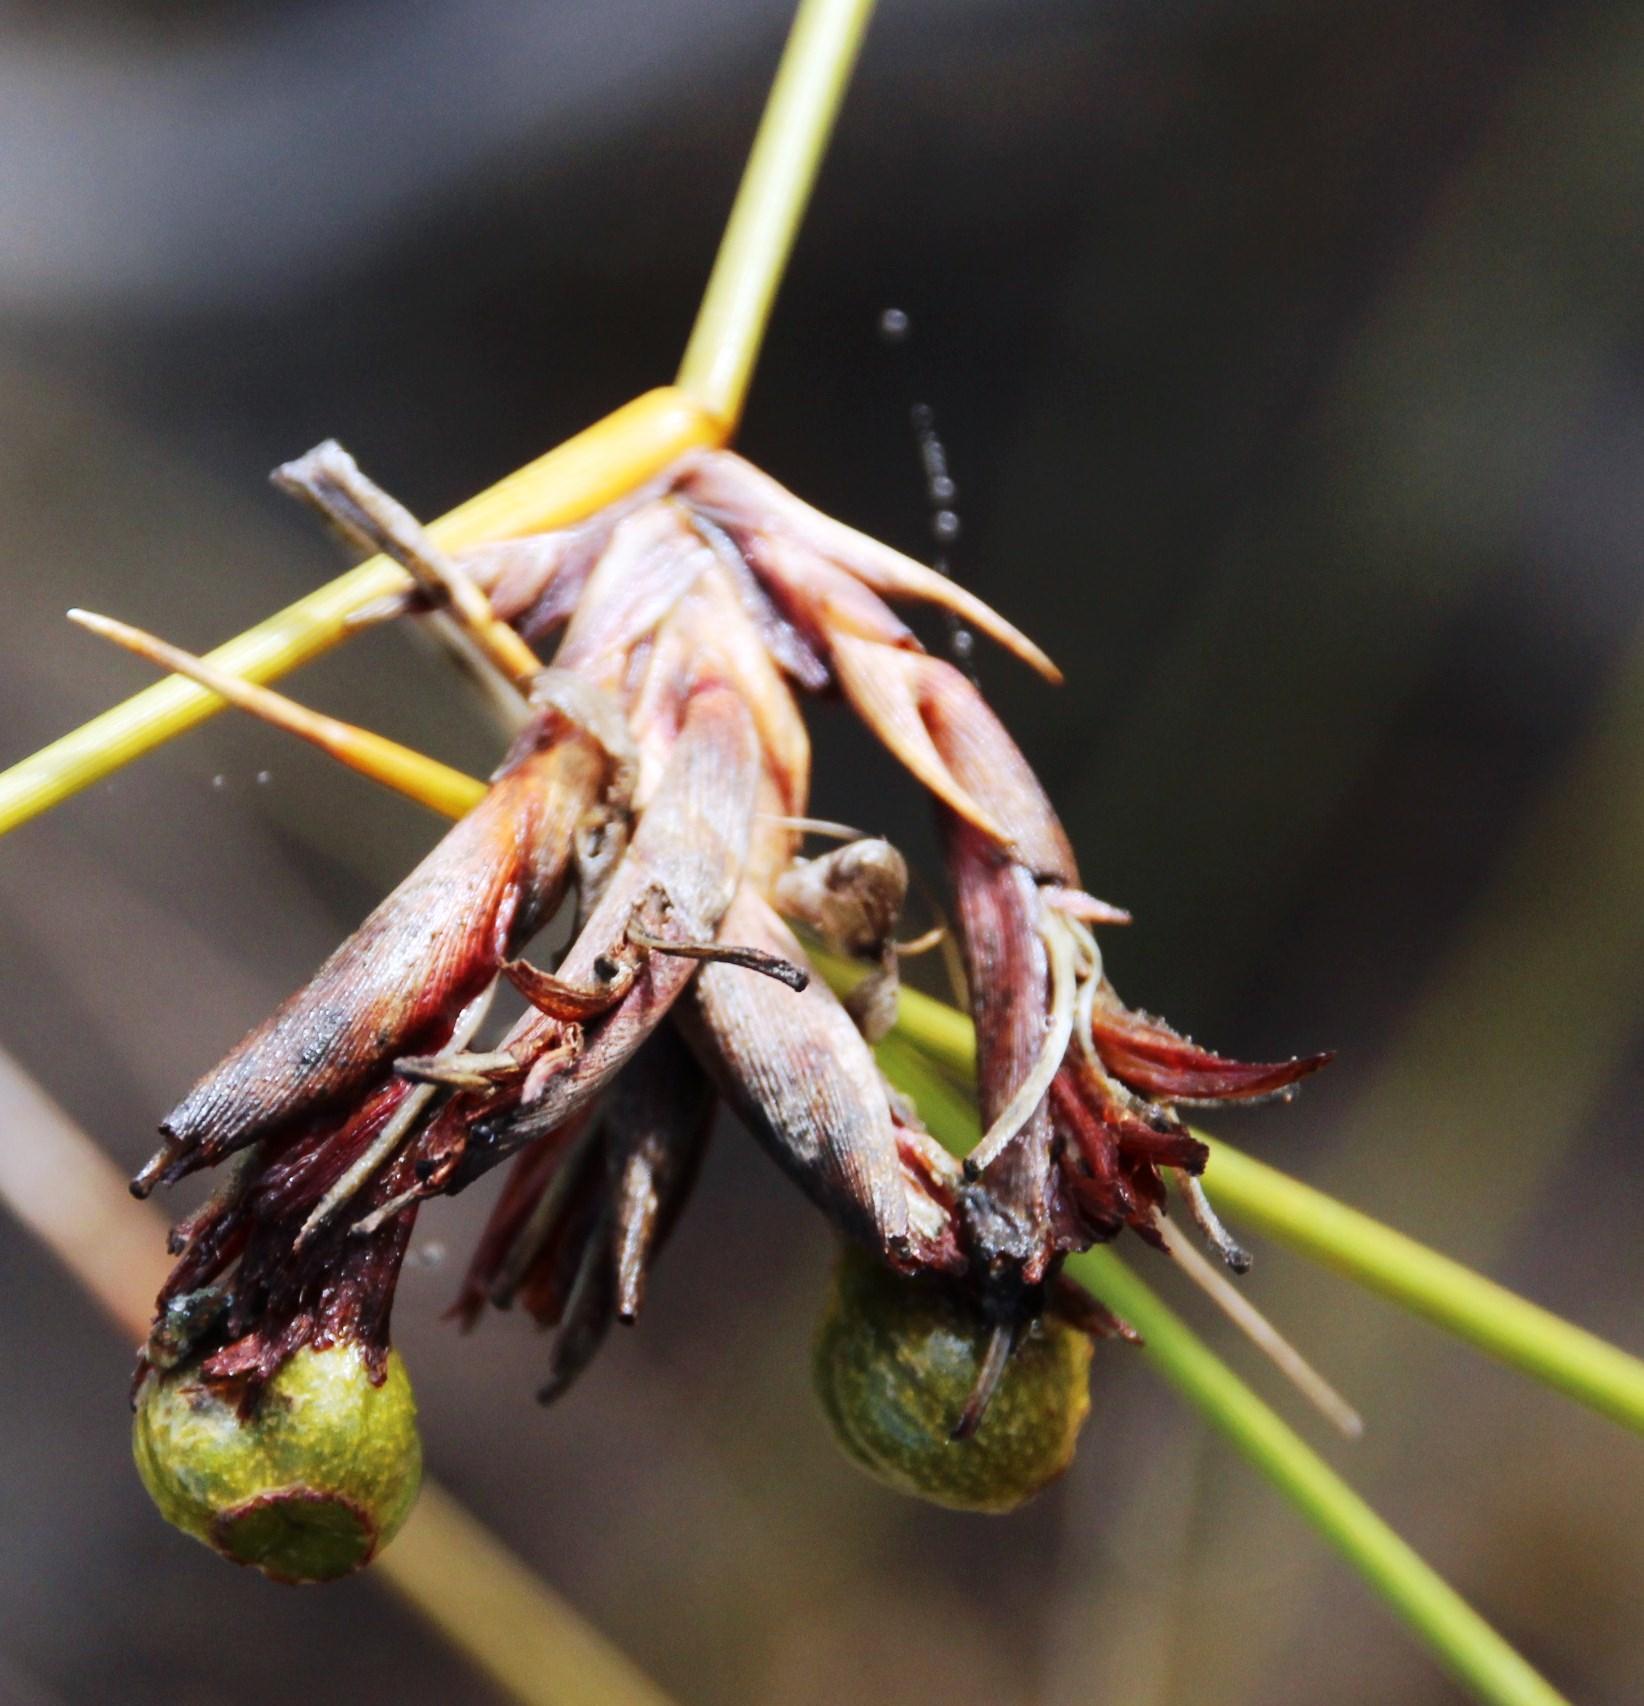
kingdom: Plantae
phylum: Tracheophyta
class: Liliopsida
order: Asparagales
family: Iridaceae
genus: Bobartia
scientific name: Bobartia indica
